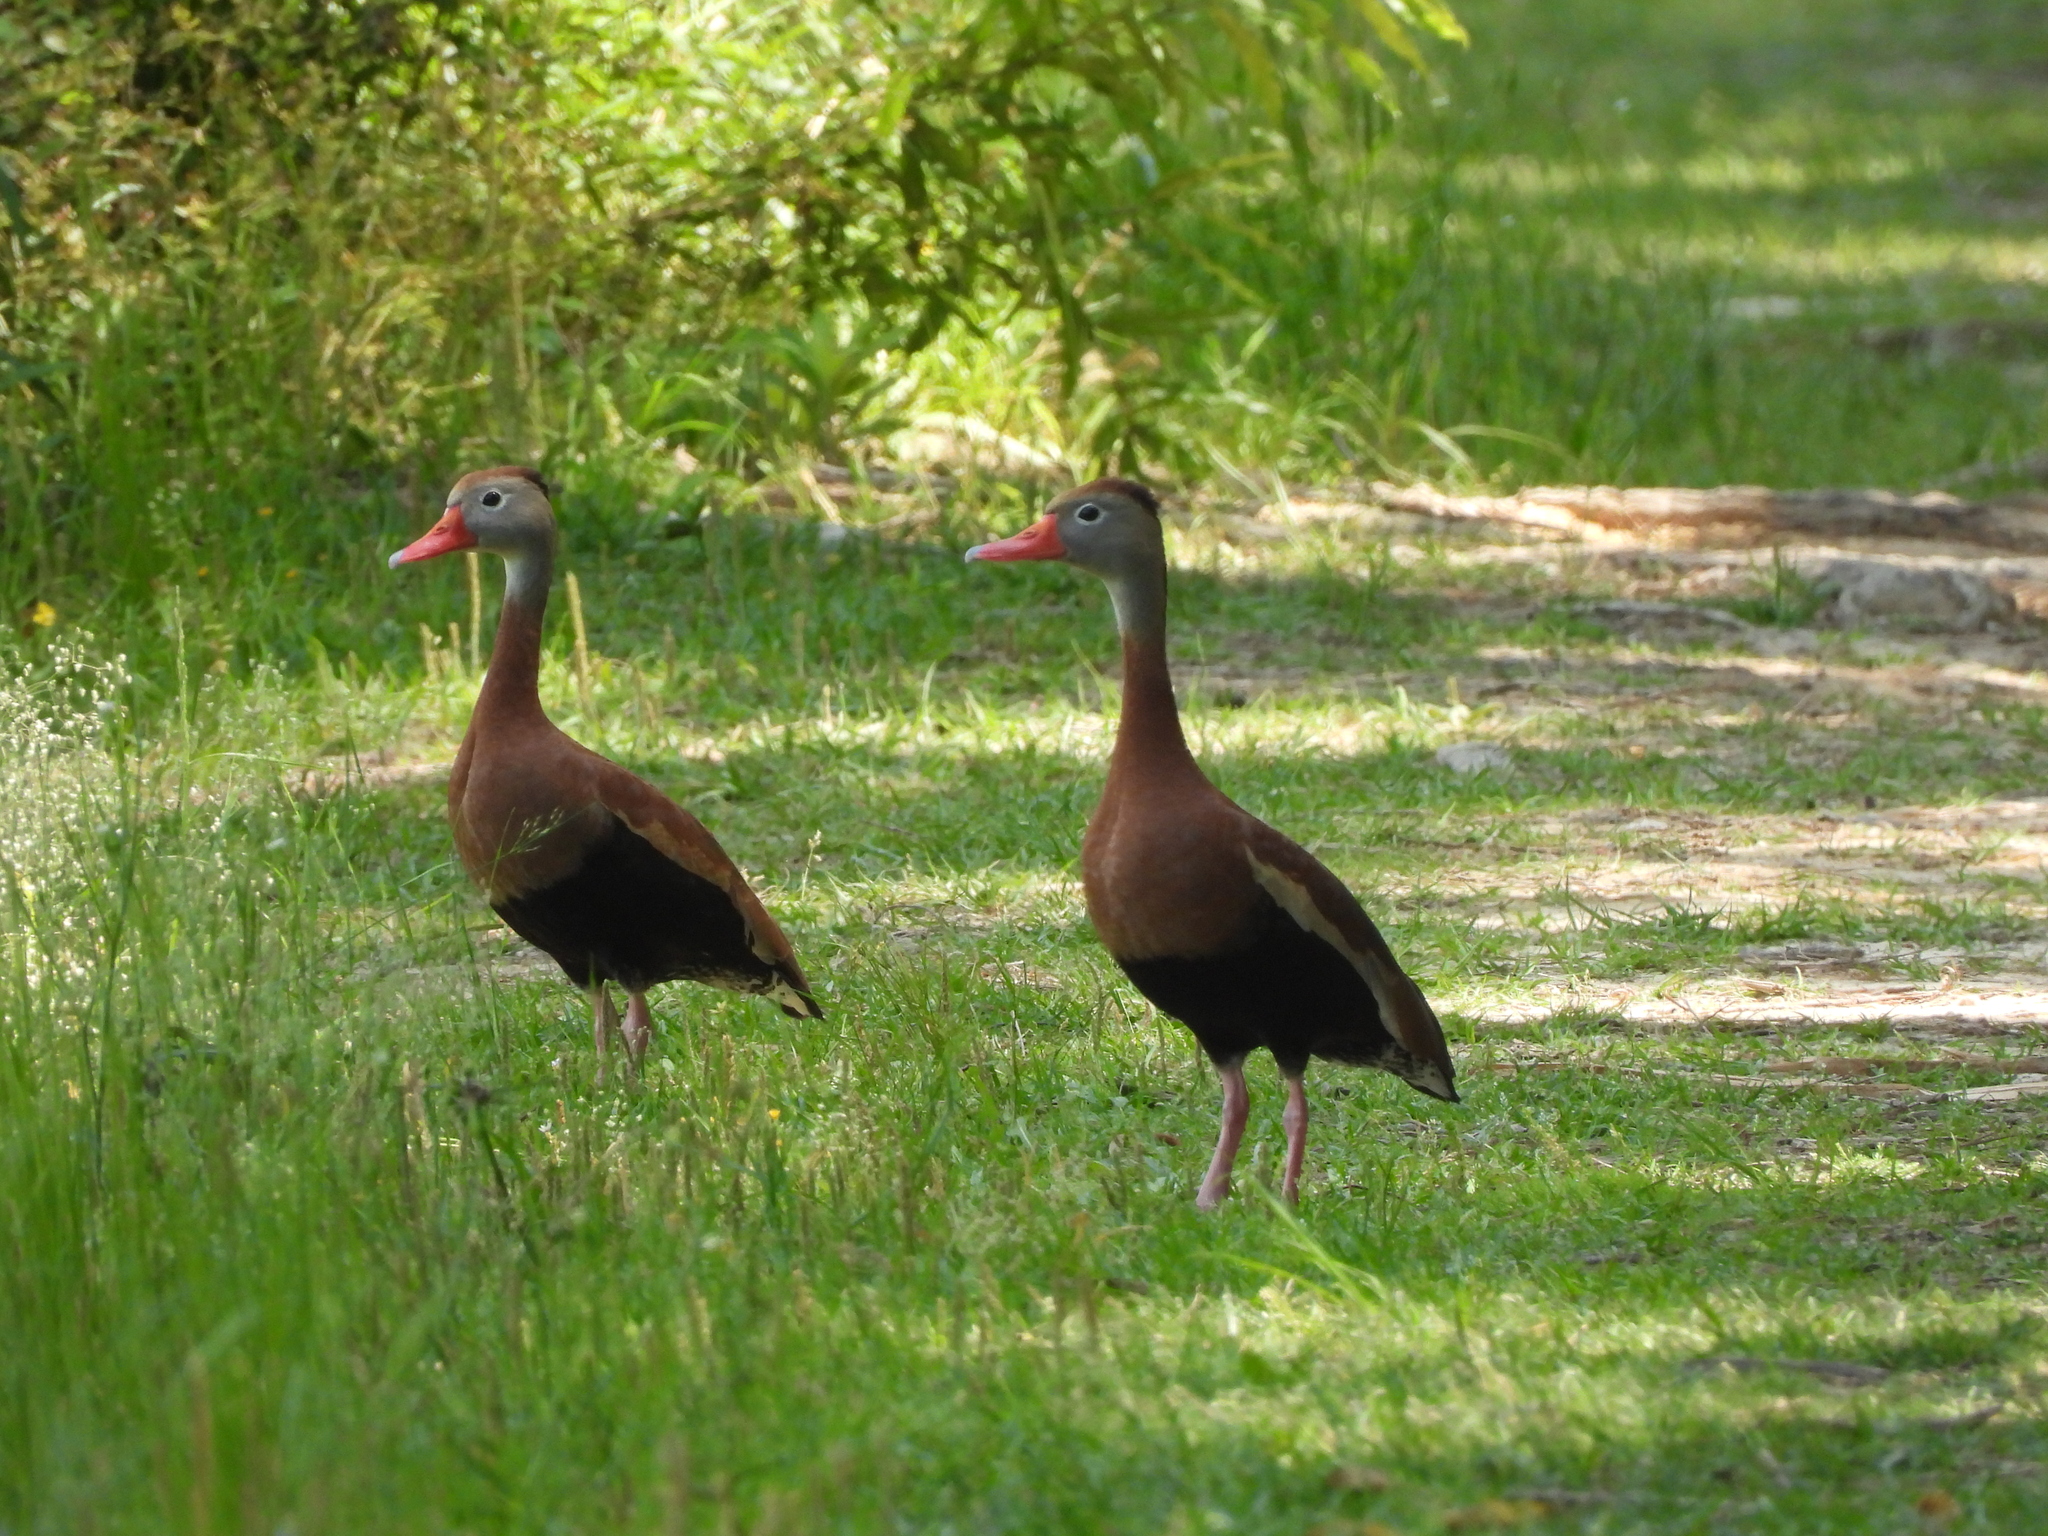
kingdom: Animalia
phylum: Chordata
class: Aves
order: Anseriformes
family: Anatidae
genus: Dendrocygna
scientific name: Dendrocygna autumnalis
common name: Black-bellied whistling duck
